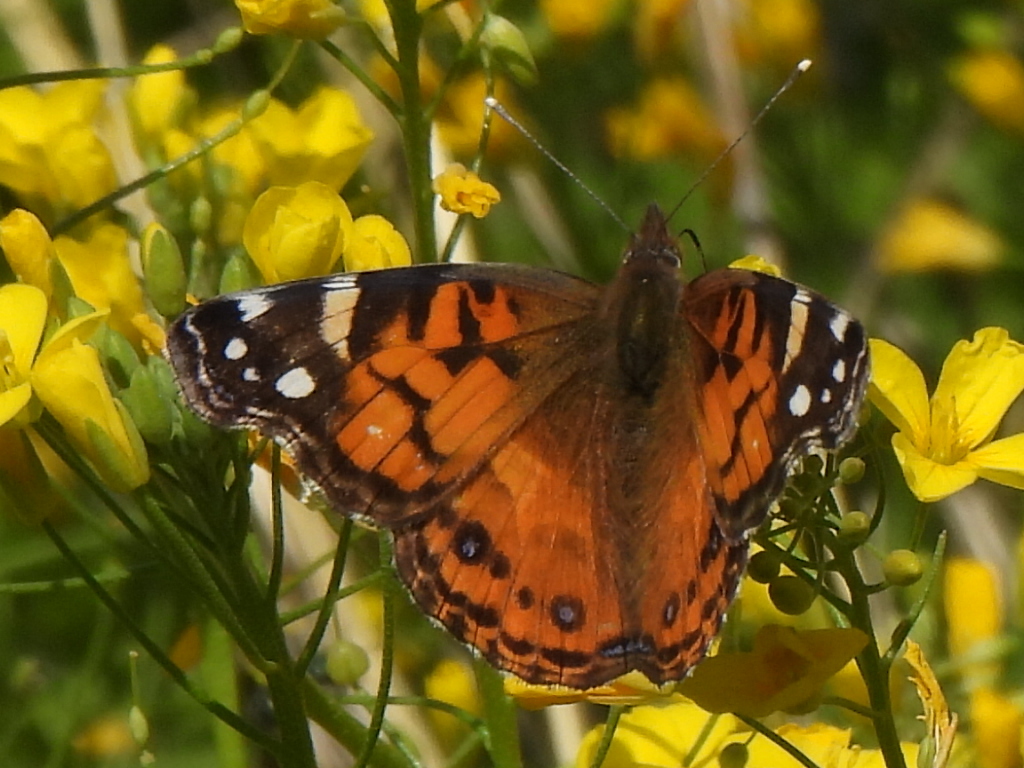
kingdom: Animalia
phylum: Arthropoda
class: Insecta
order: Lepidoptera
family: Nymphalidae
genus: Vanessa
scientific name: Vanessa virginiensis
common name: American lady
